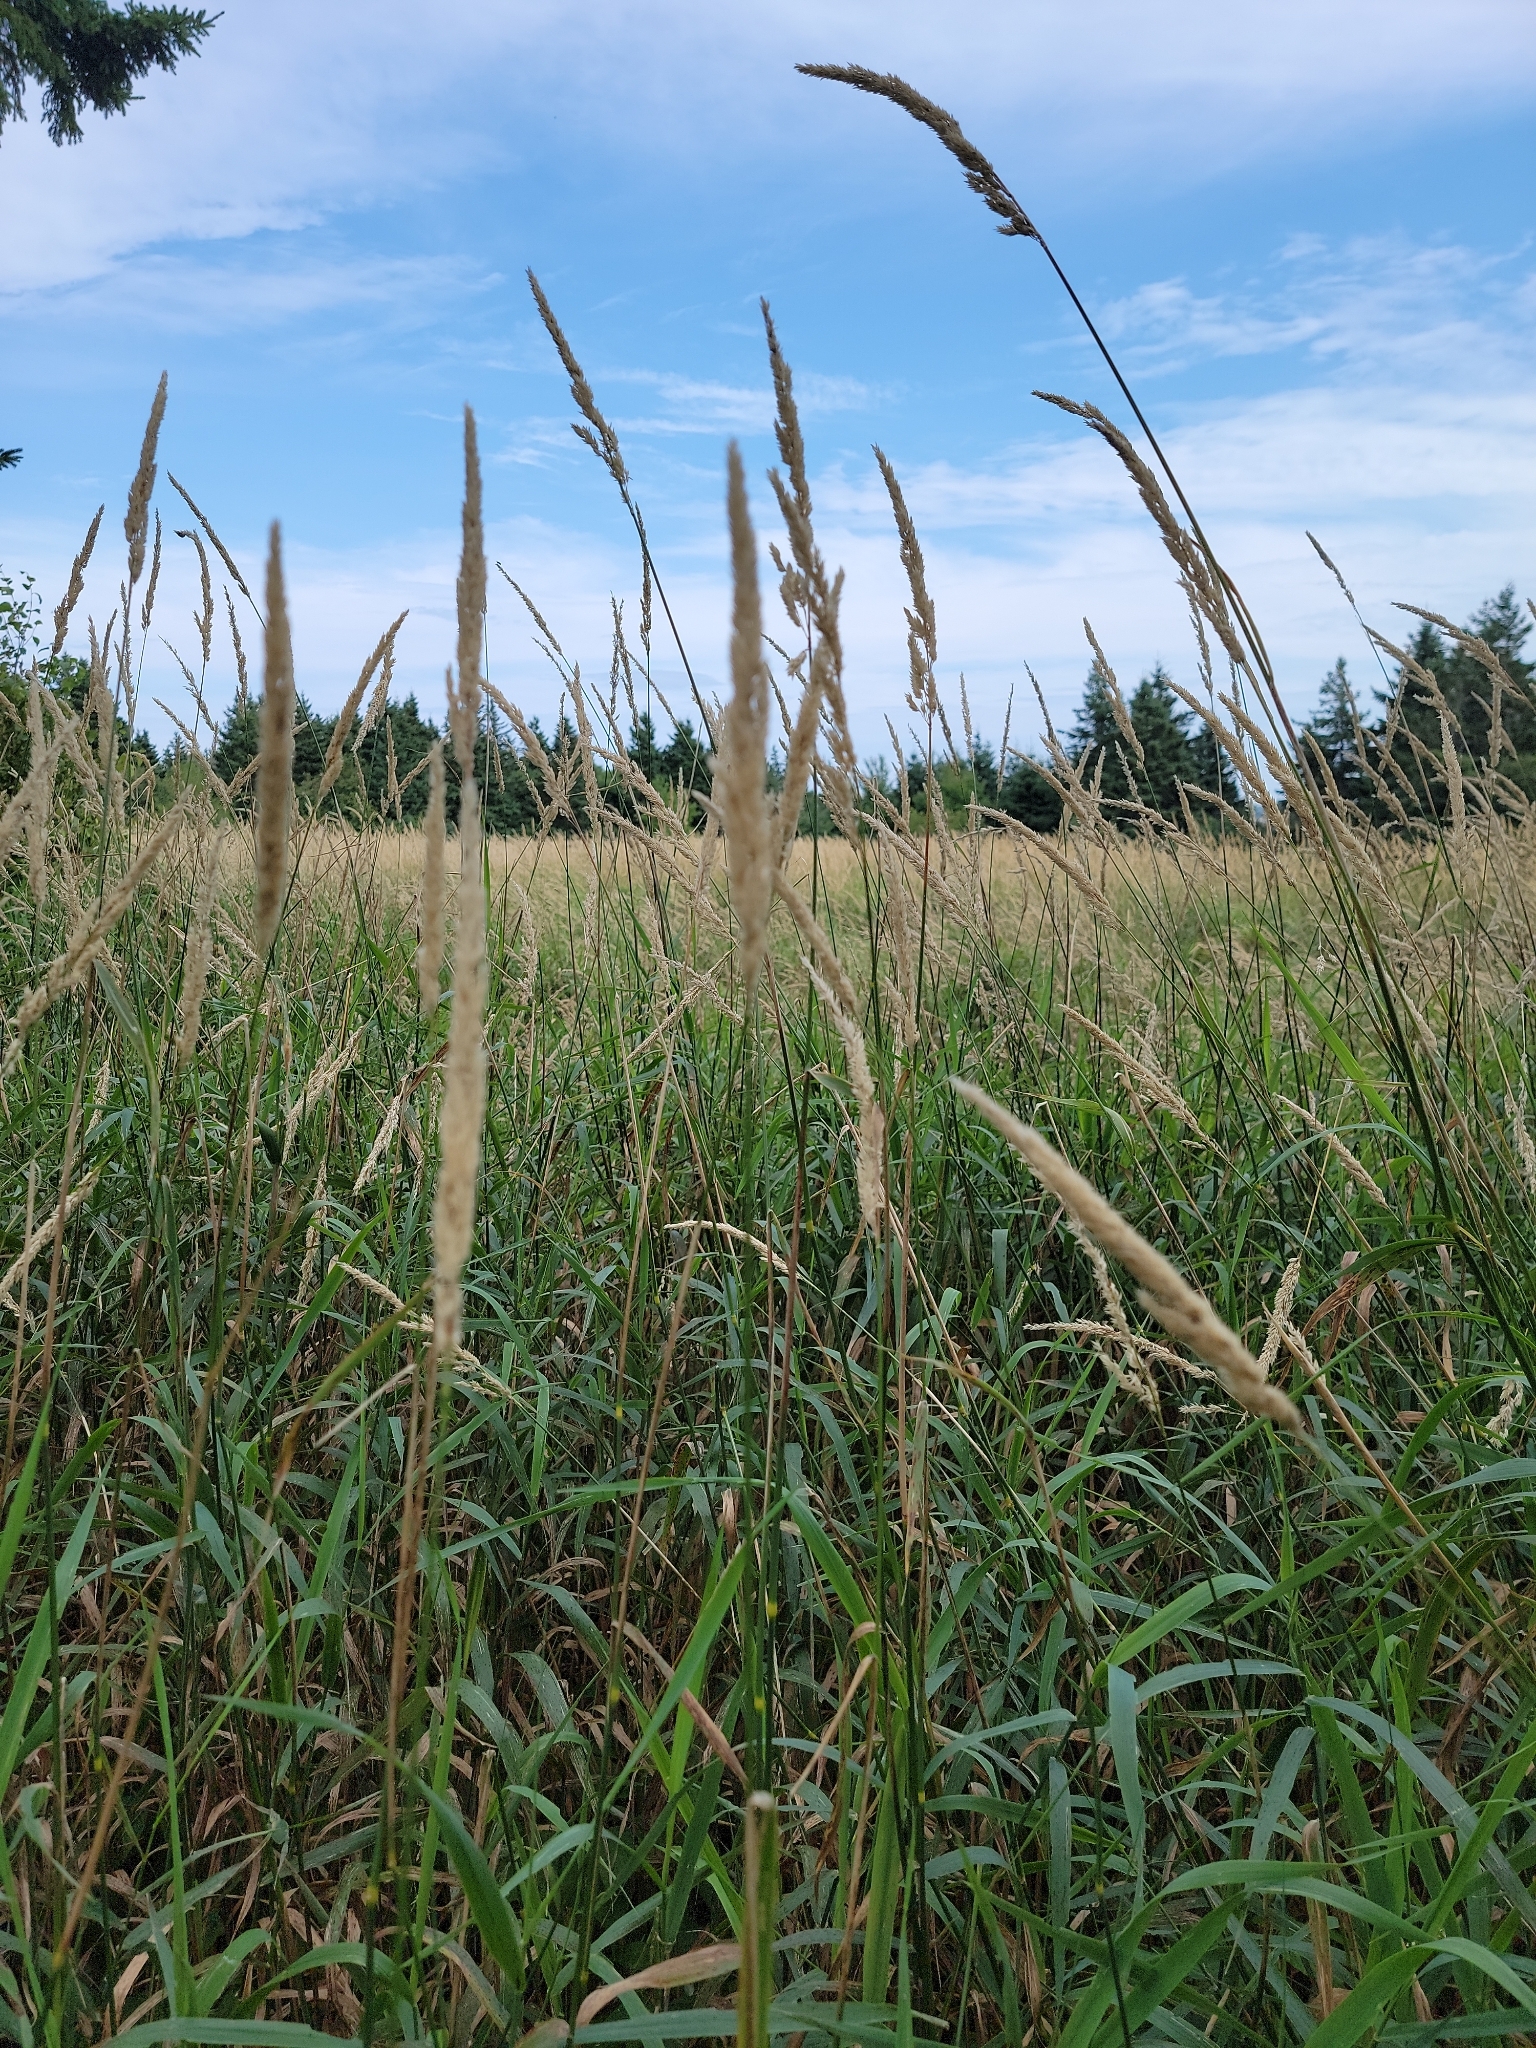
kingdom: Plantae
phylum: Tracheophyta
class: Liliopsida
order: Poales
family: Poaceae
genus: Phalaris
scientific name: Phalaris arundinacea
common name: Reed canary-grass
